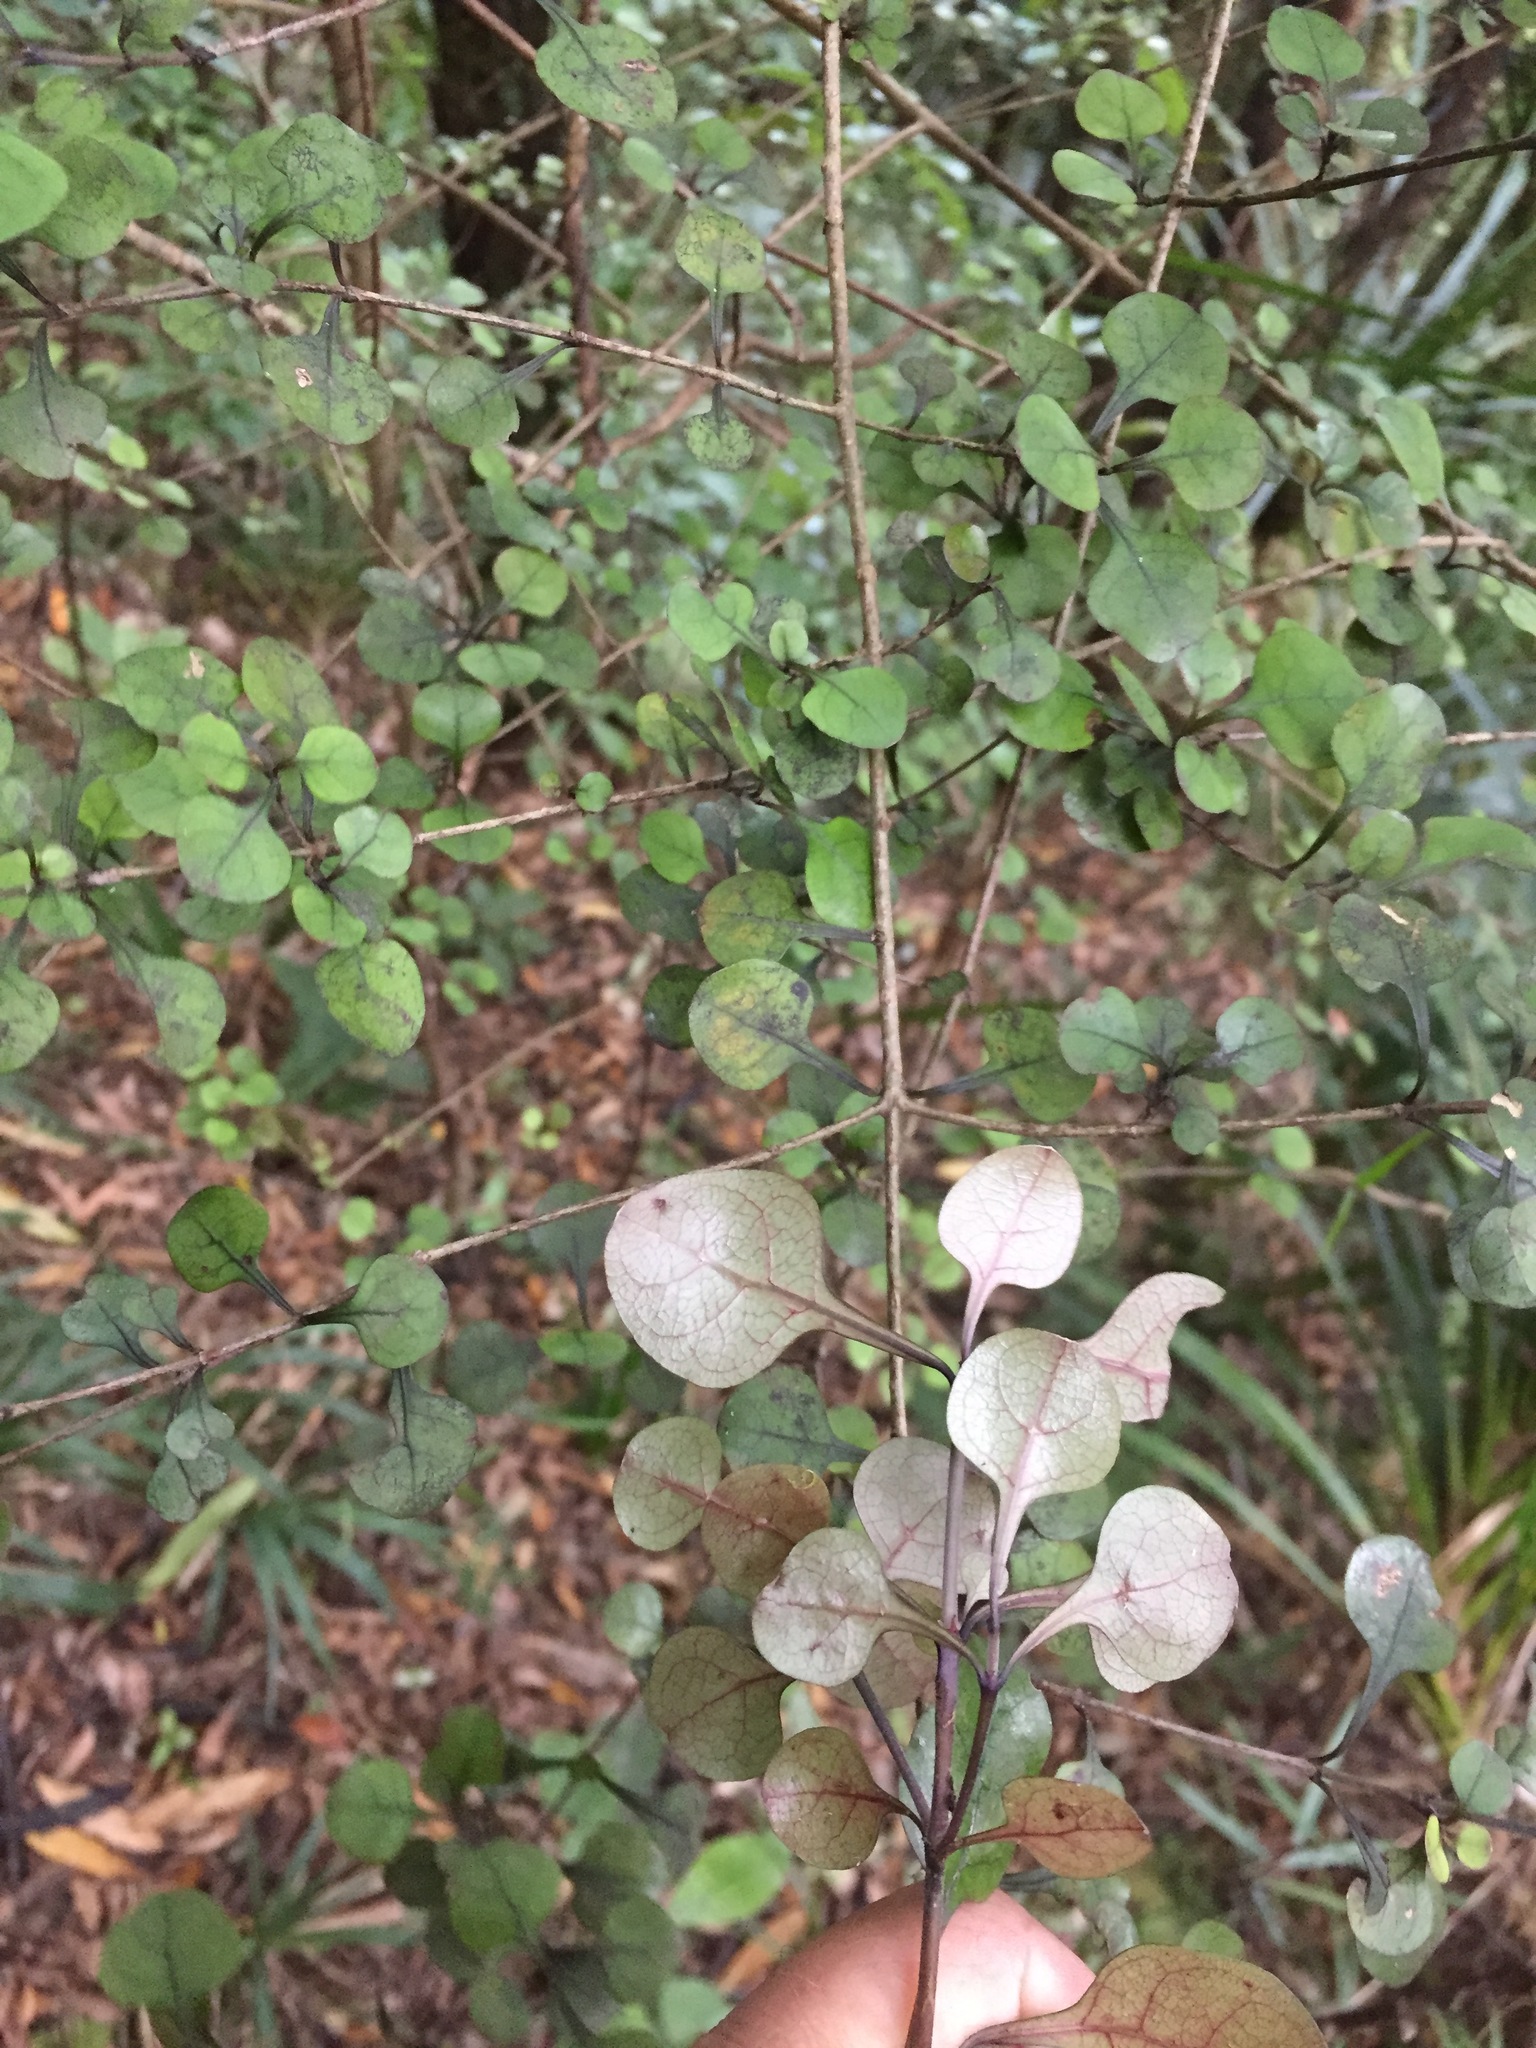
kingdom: Plantae
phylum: Tracheophyta
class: Magnoliopsida
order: Gentianales
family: Rubiaceae
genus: Coprosma
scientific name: Coprosma arborea
